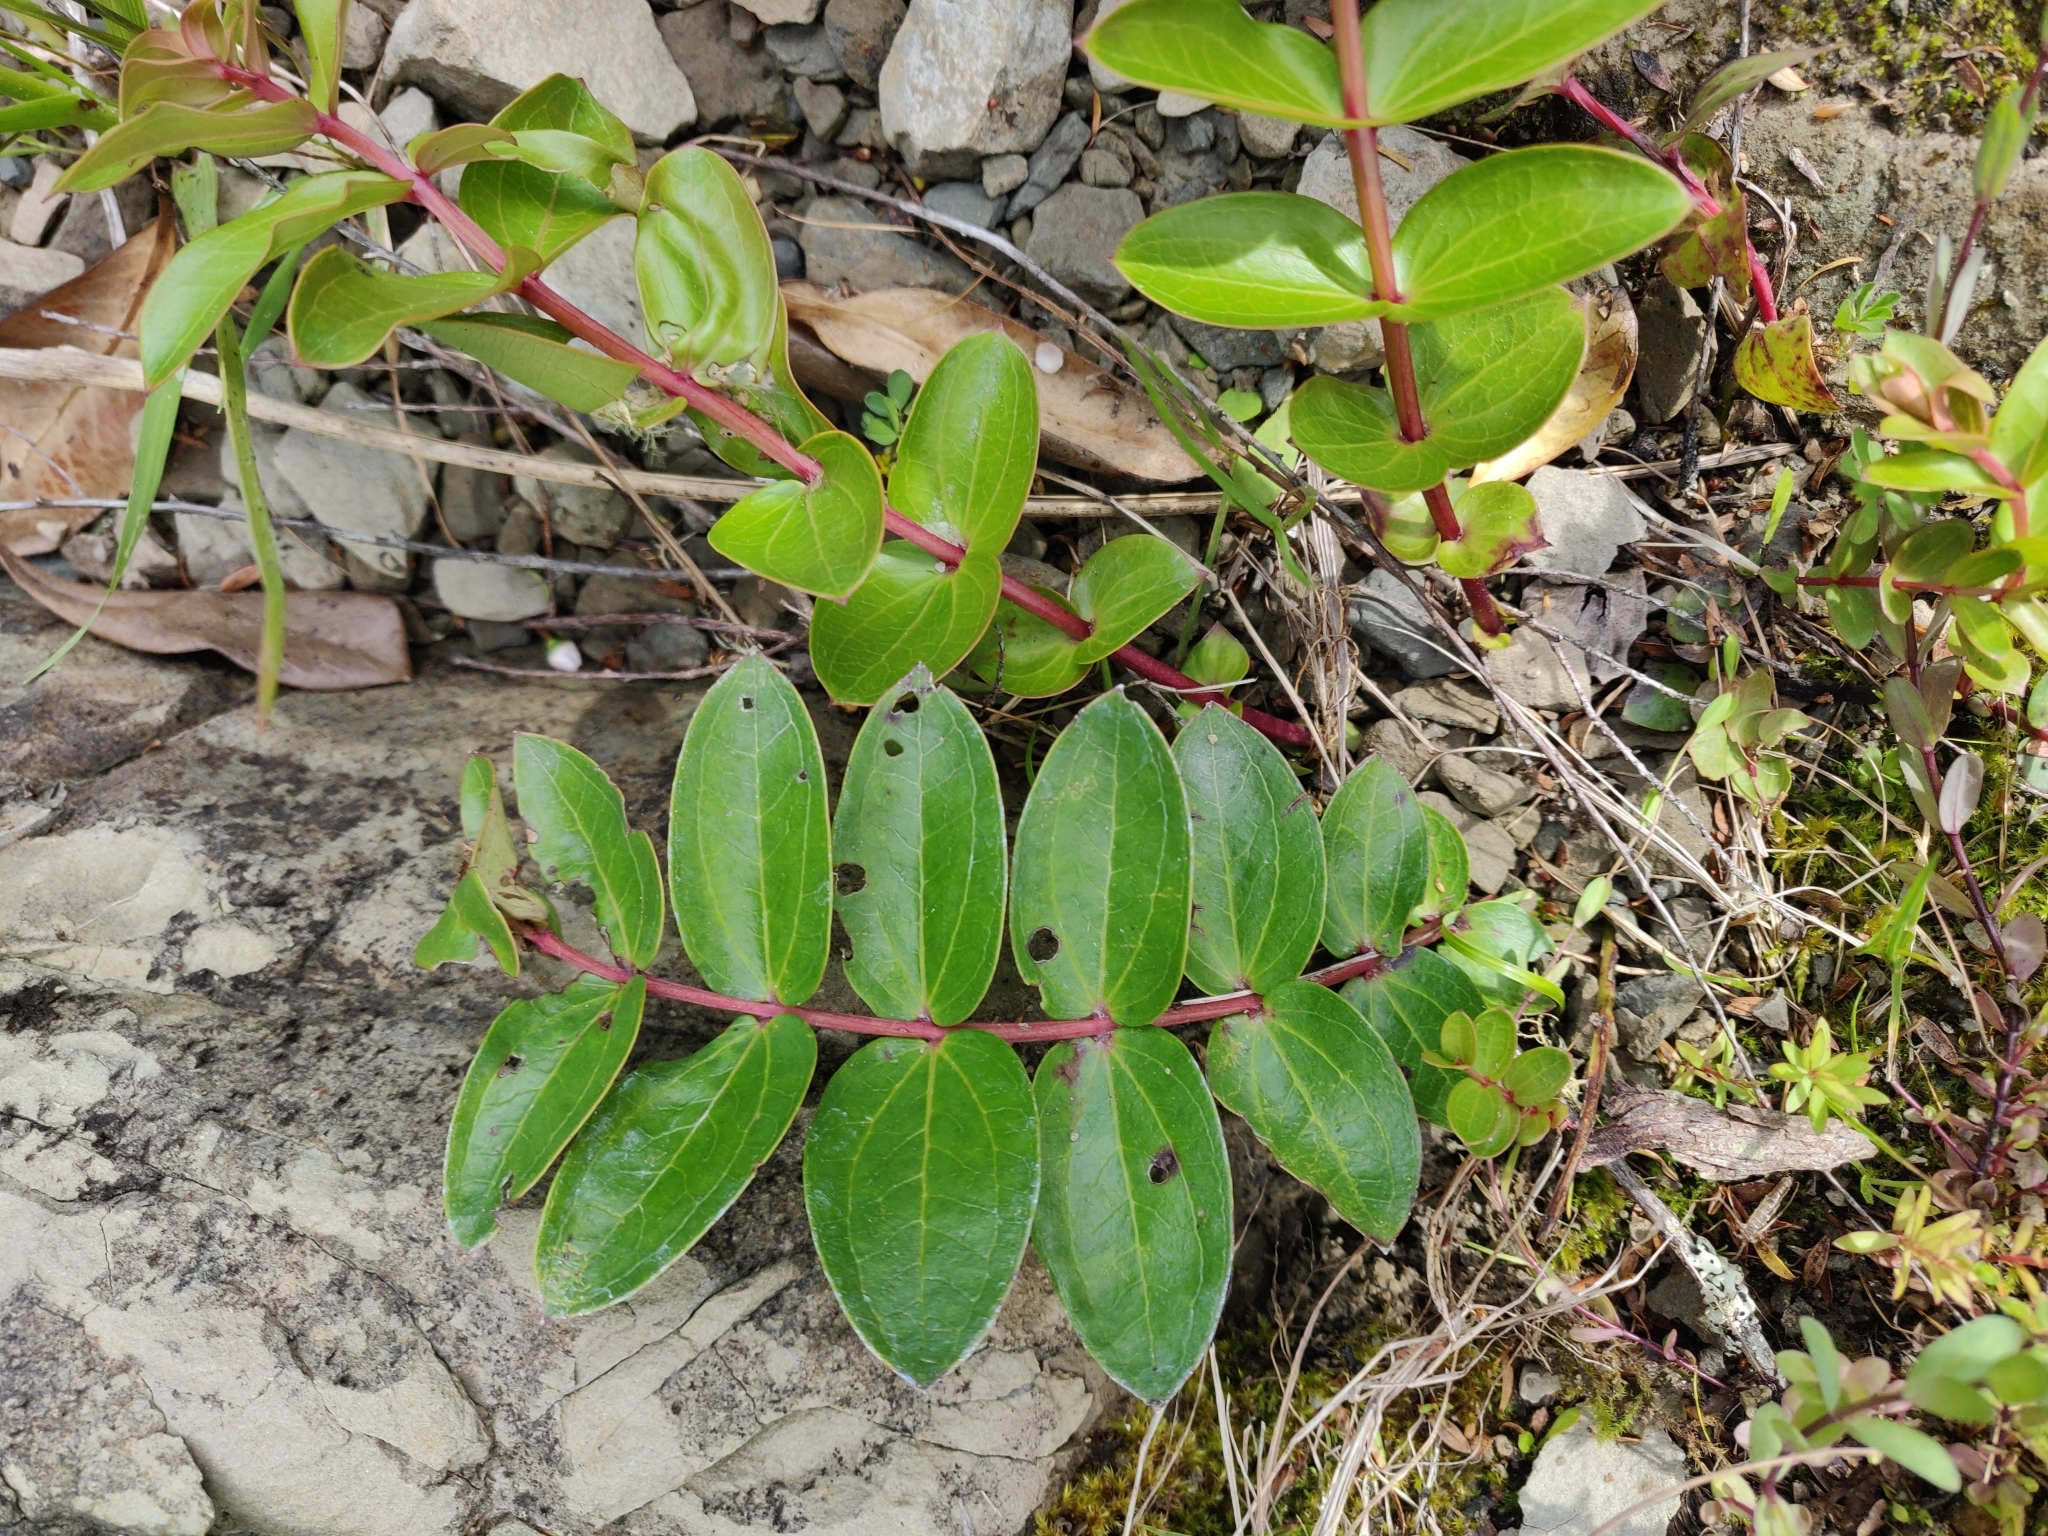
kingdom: Plantae
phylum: Tracheophyta
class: Magnoliopsida
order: Cucurbitales
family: Coriariaceae
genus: Coriaria
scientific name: Coriaria arborea
